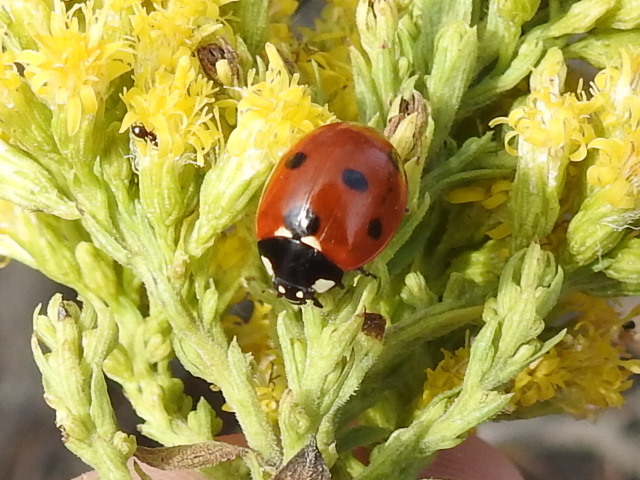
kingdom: Animalia
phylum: Arthropoda
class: Insecta
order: Coleoptera
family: Coccinellidae
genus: Coccinella
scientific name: Coccinella septempunctata
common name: Sevenspotted lady beetle
